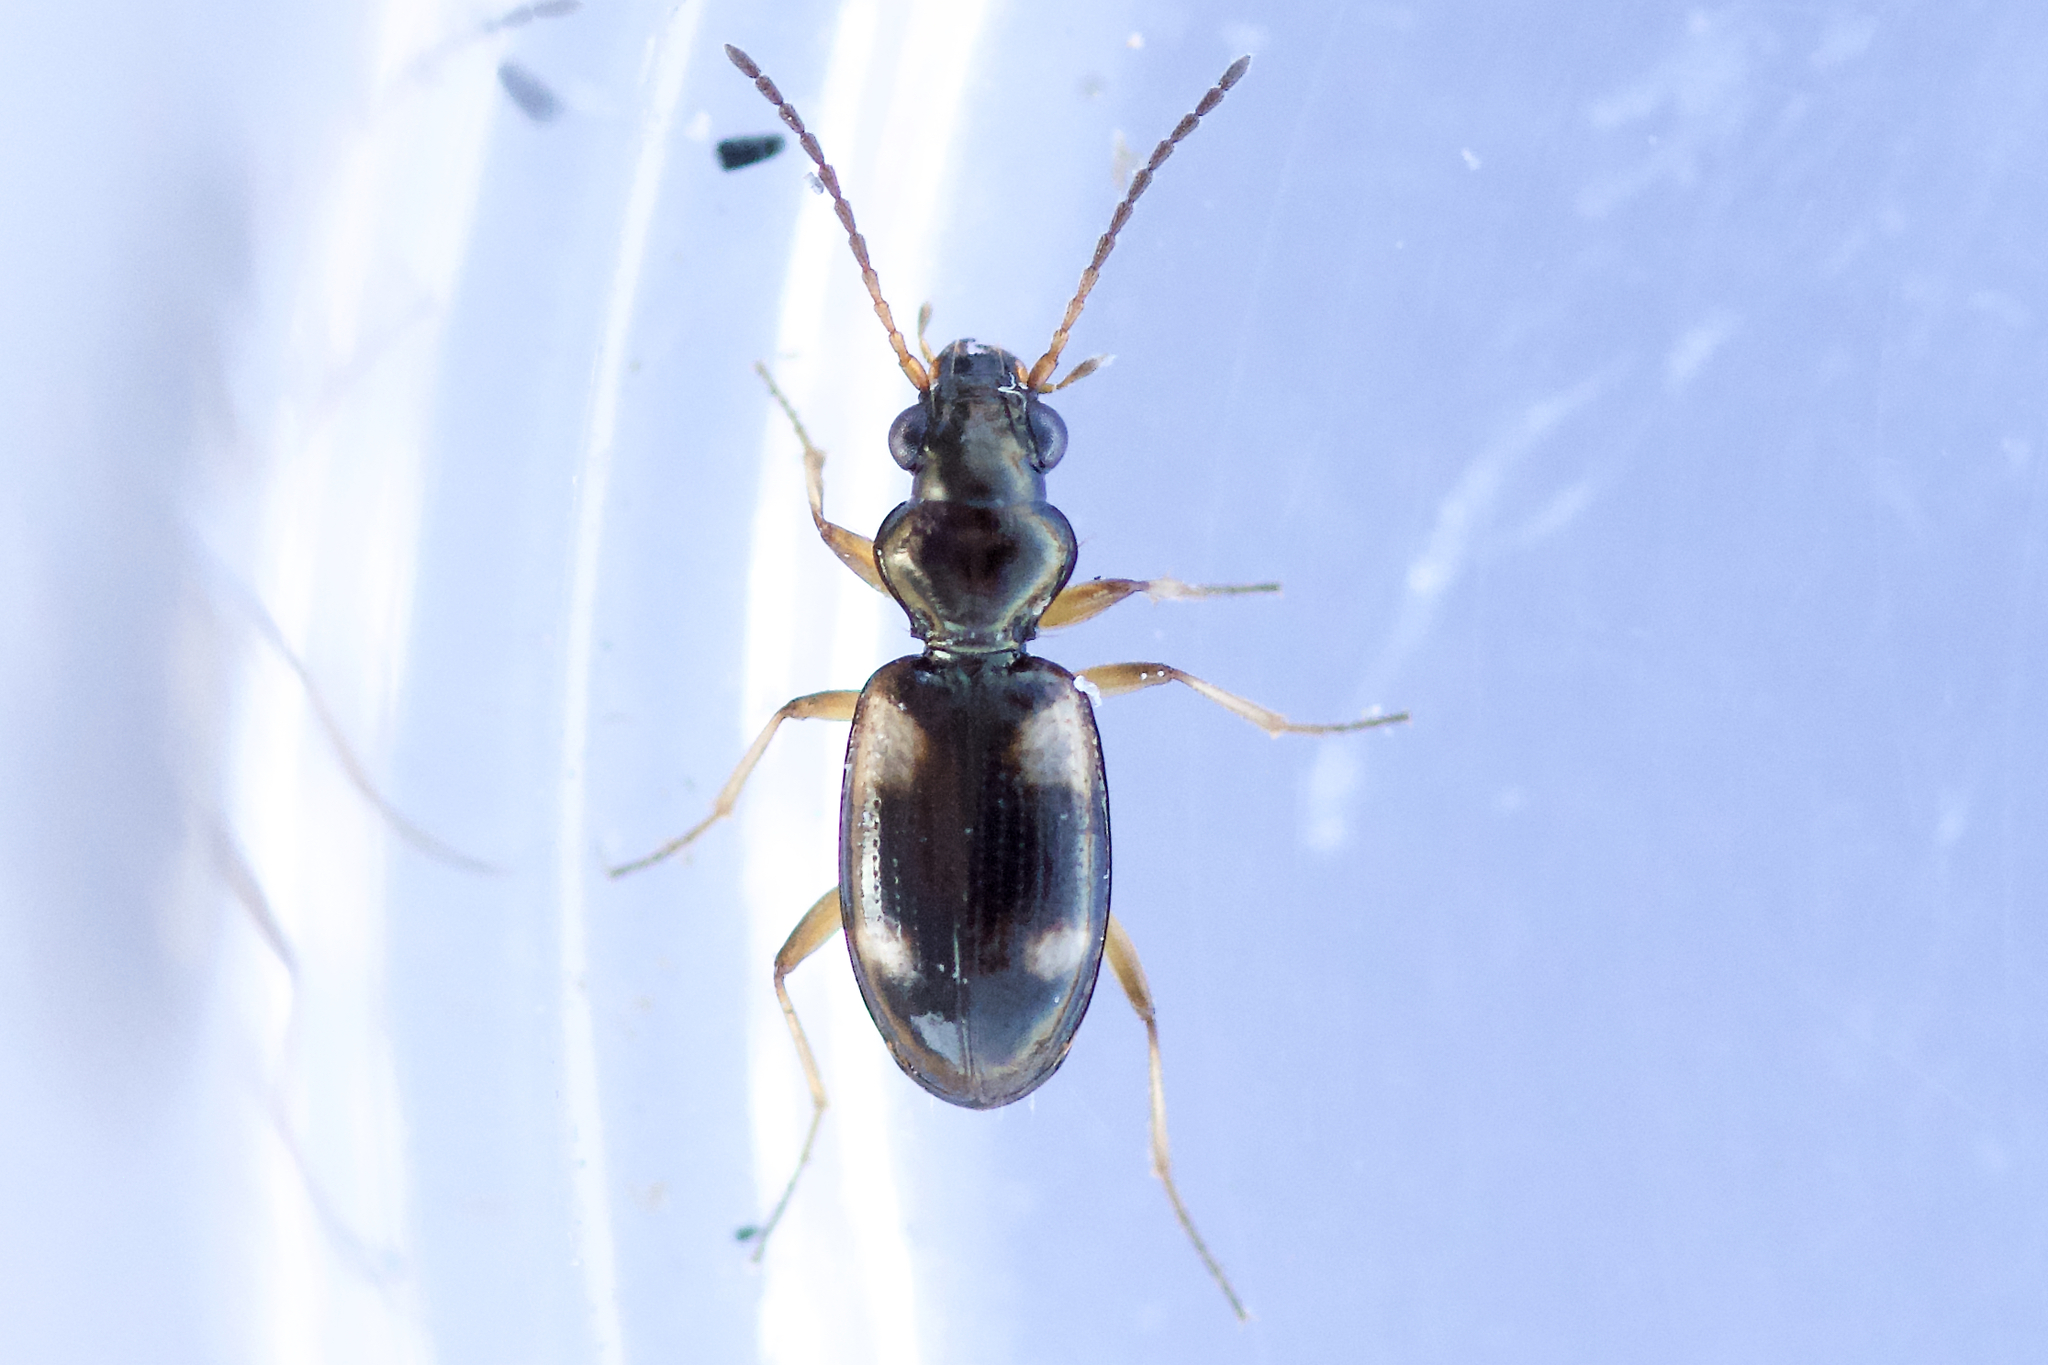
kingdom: Animalia
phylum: Arthropoda
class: Insecta
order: Coleoptera
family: Carabidae
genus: Bembidion
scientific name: Bembidion quadrimaculatum
